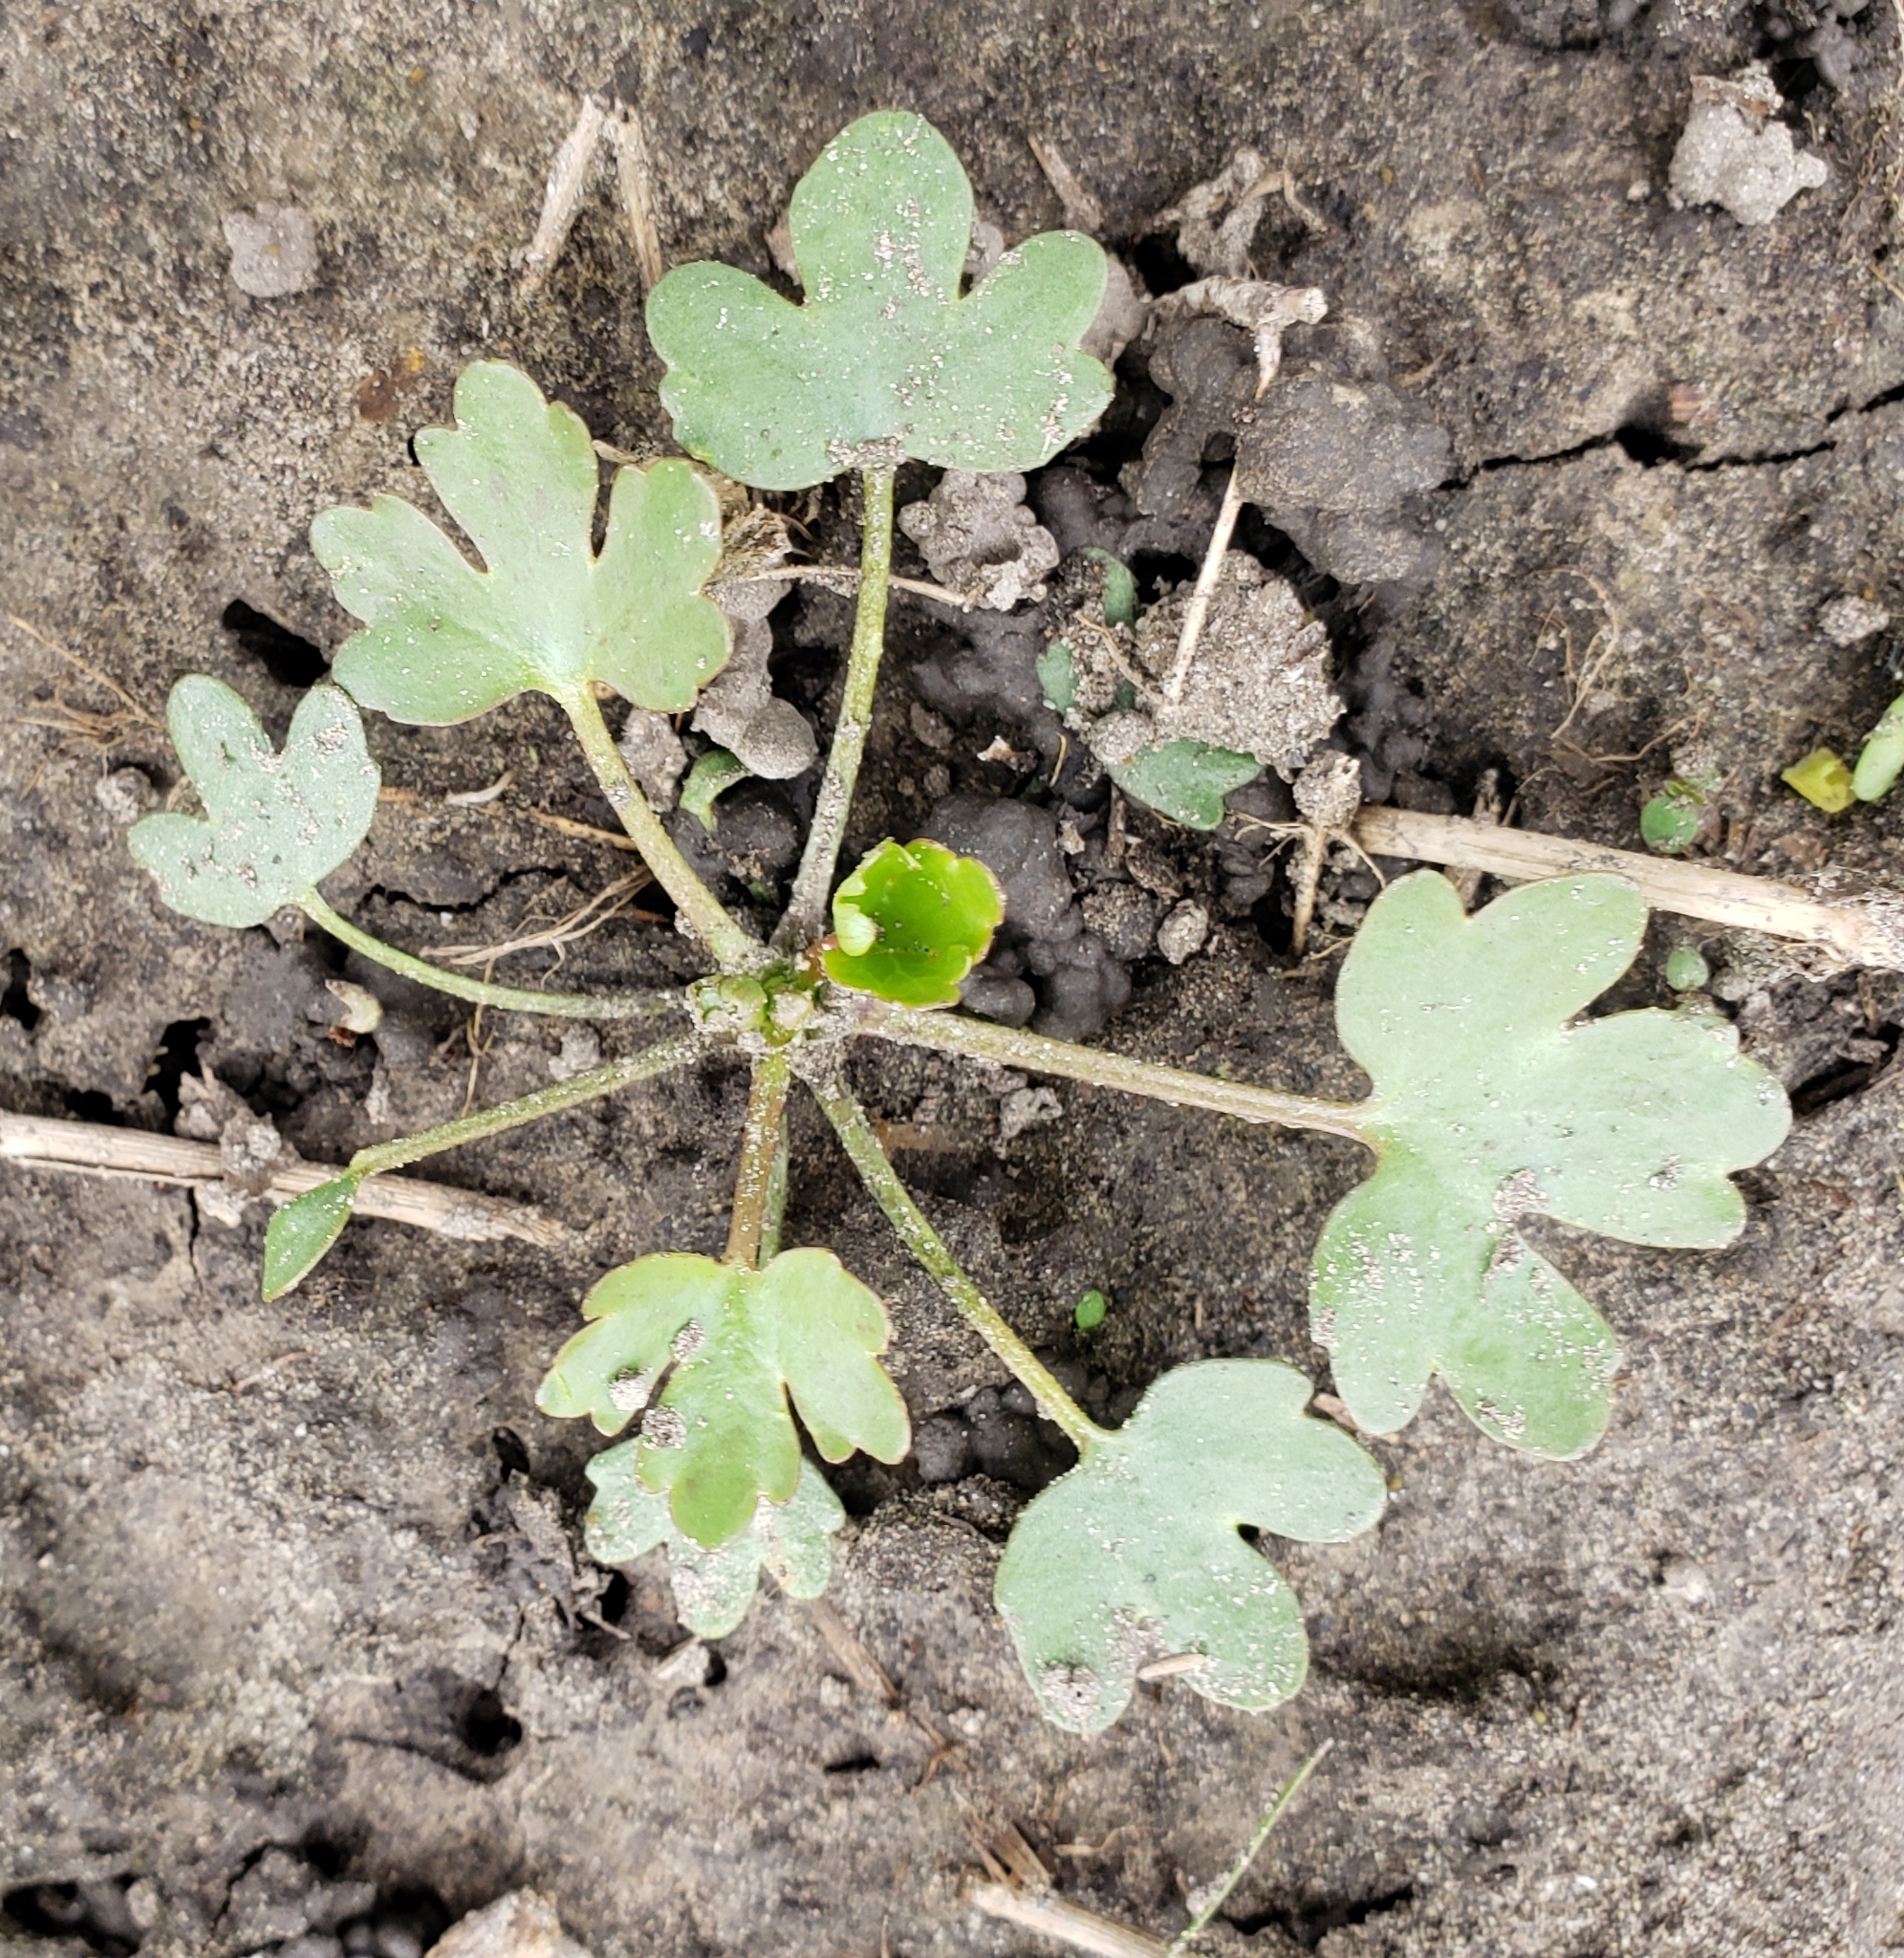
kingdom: Plantae
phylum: Tracheophyta
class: Magnoliopsida
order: Ranunculales
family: Ranunculaceae
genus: Ranunculus
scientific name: Ranunculus sceleratus
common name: Celery-leaved buttercup
